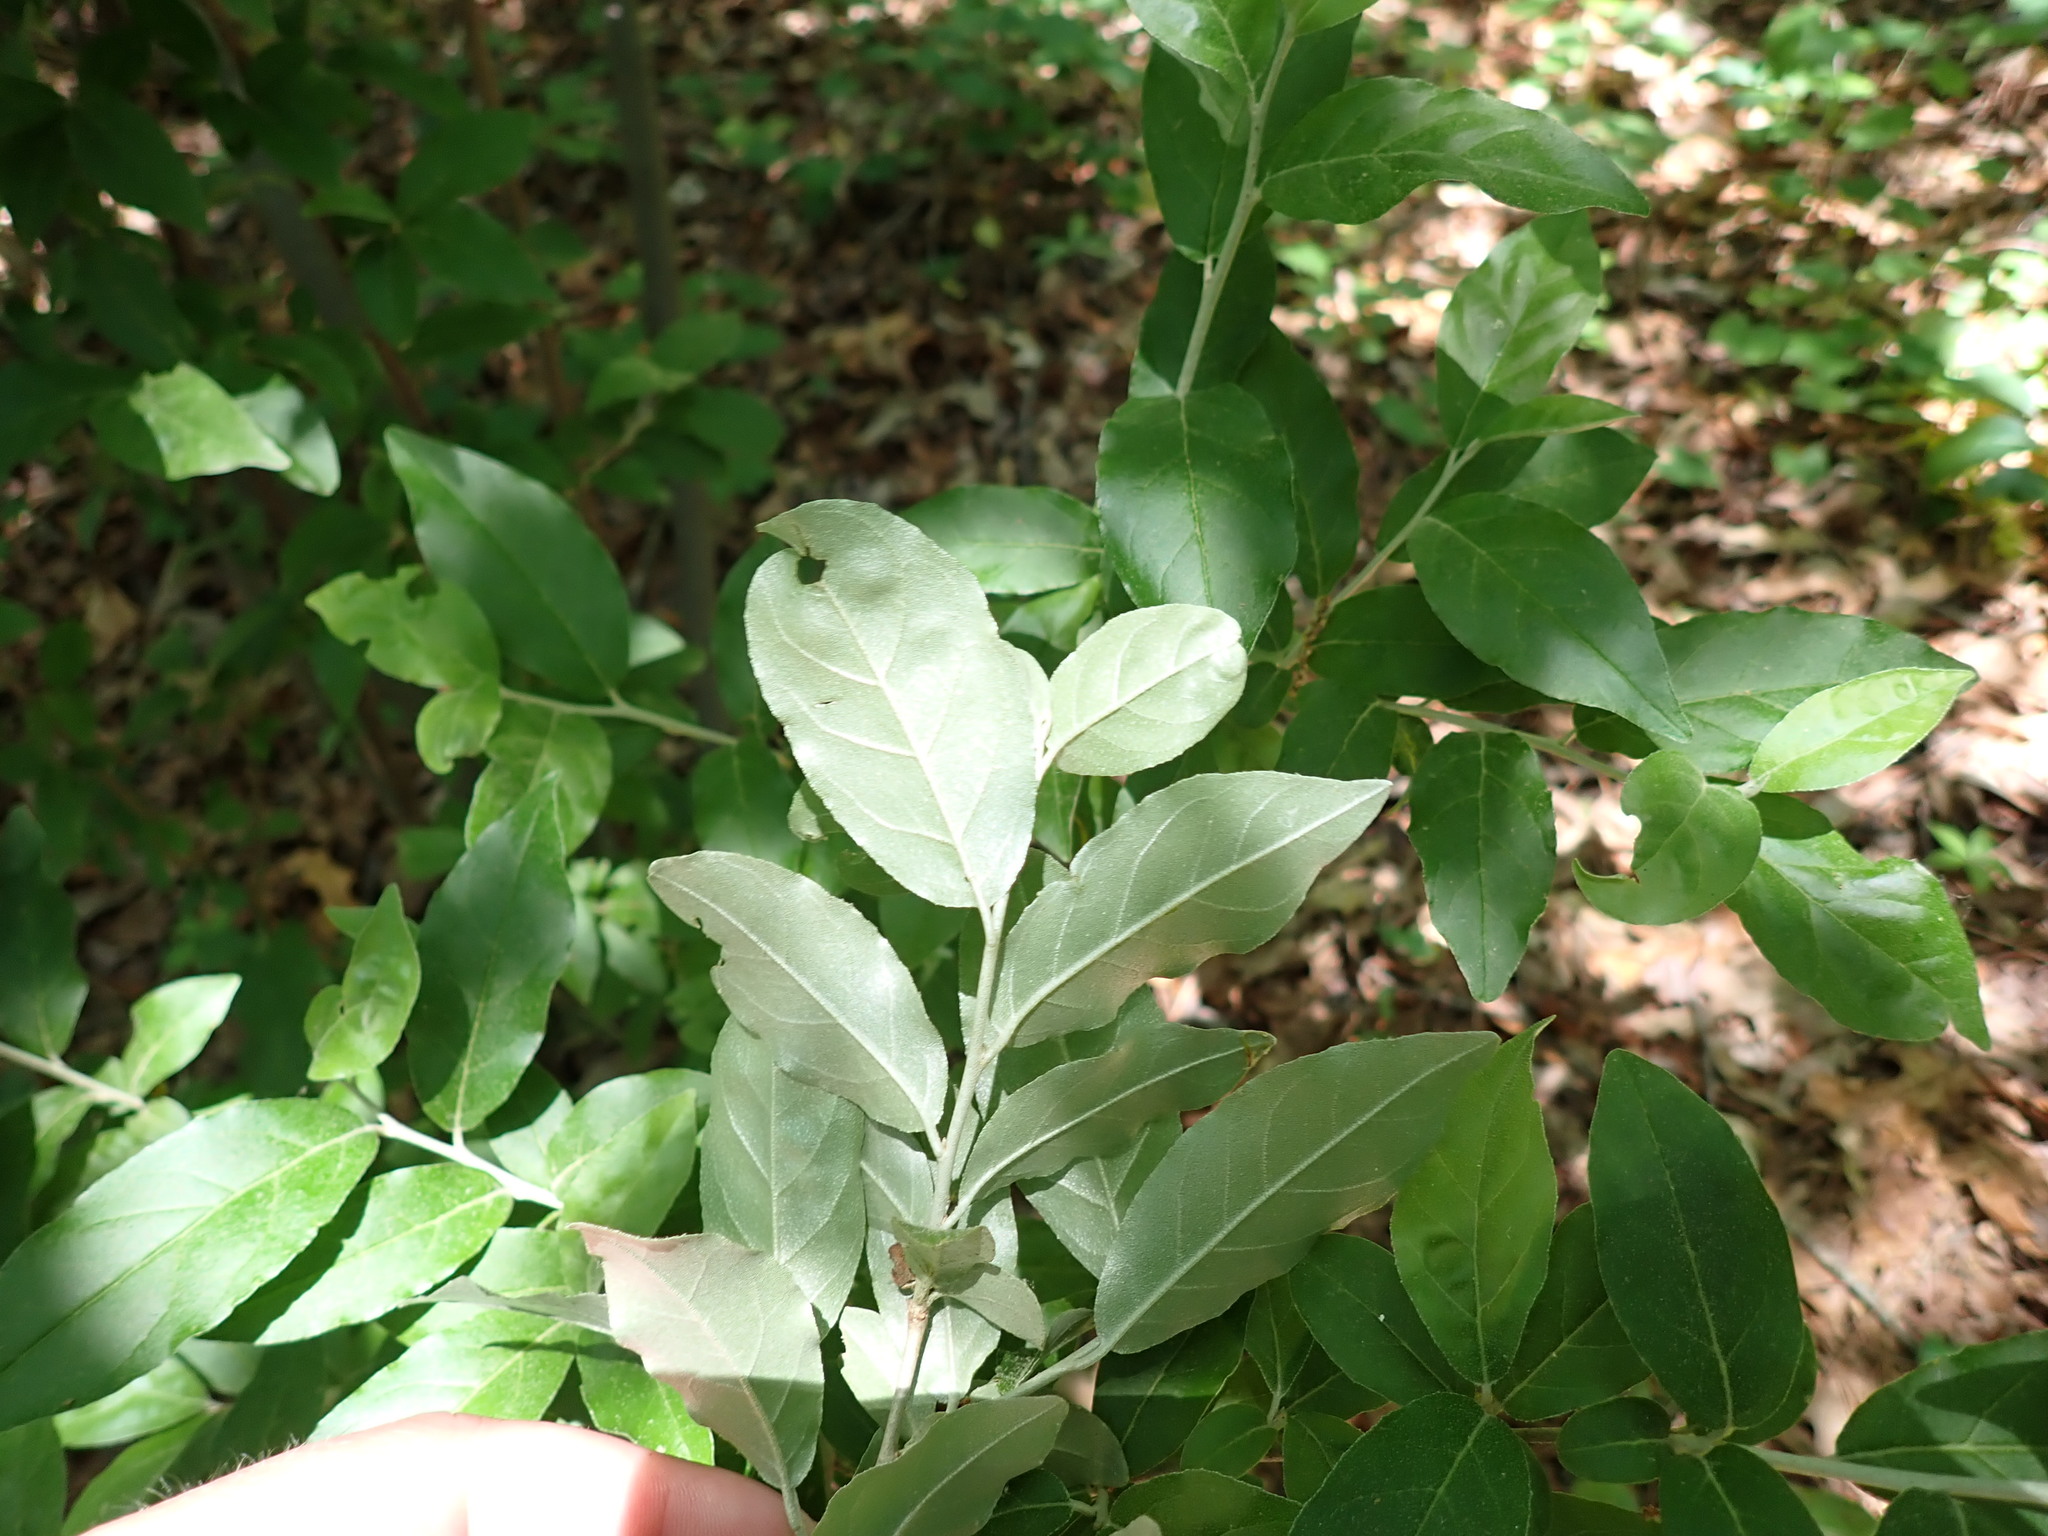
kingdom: Plantae
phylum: Tracheophyta
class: Magnoliopsida
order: Rosales
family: Elaeagnaceae
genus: Elaeagnus
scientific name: Elaeagnus umbellata
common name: Autumn olive
